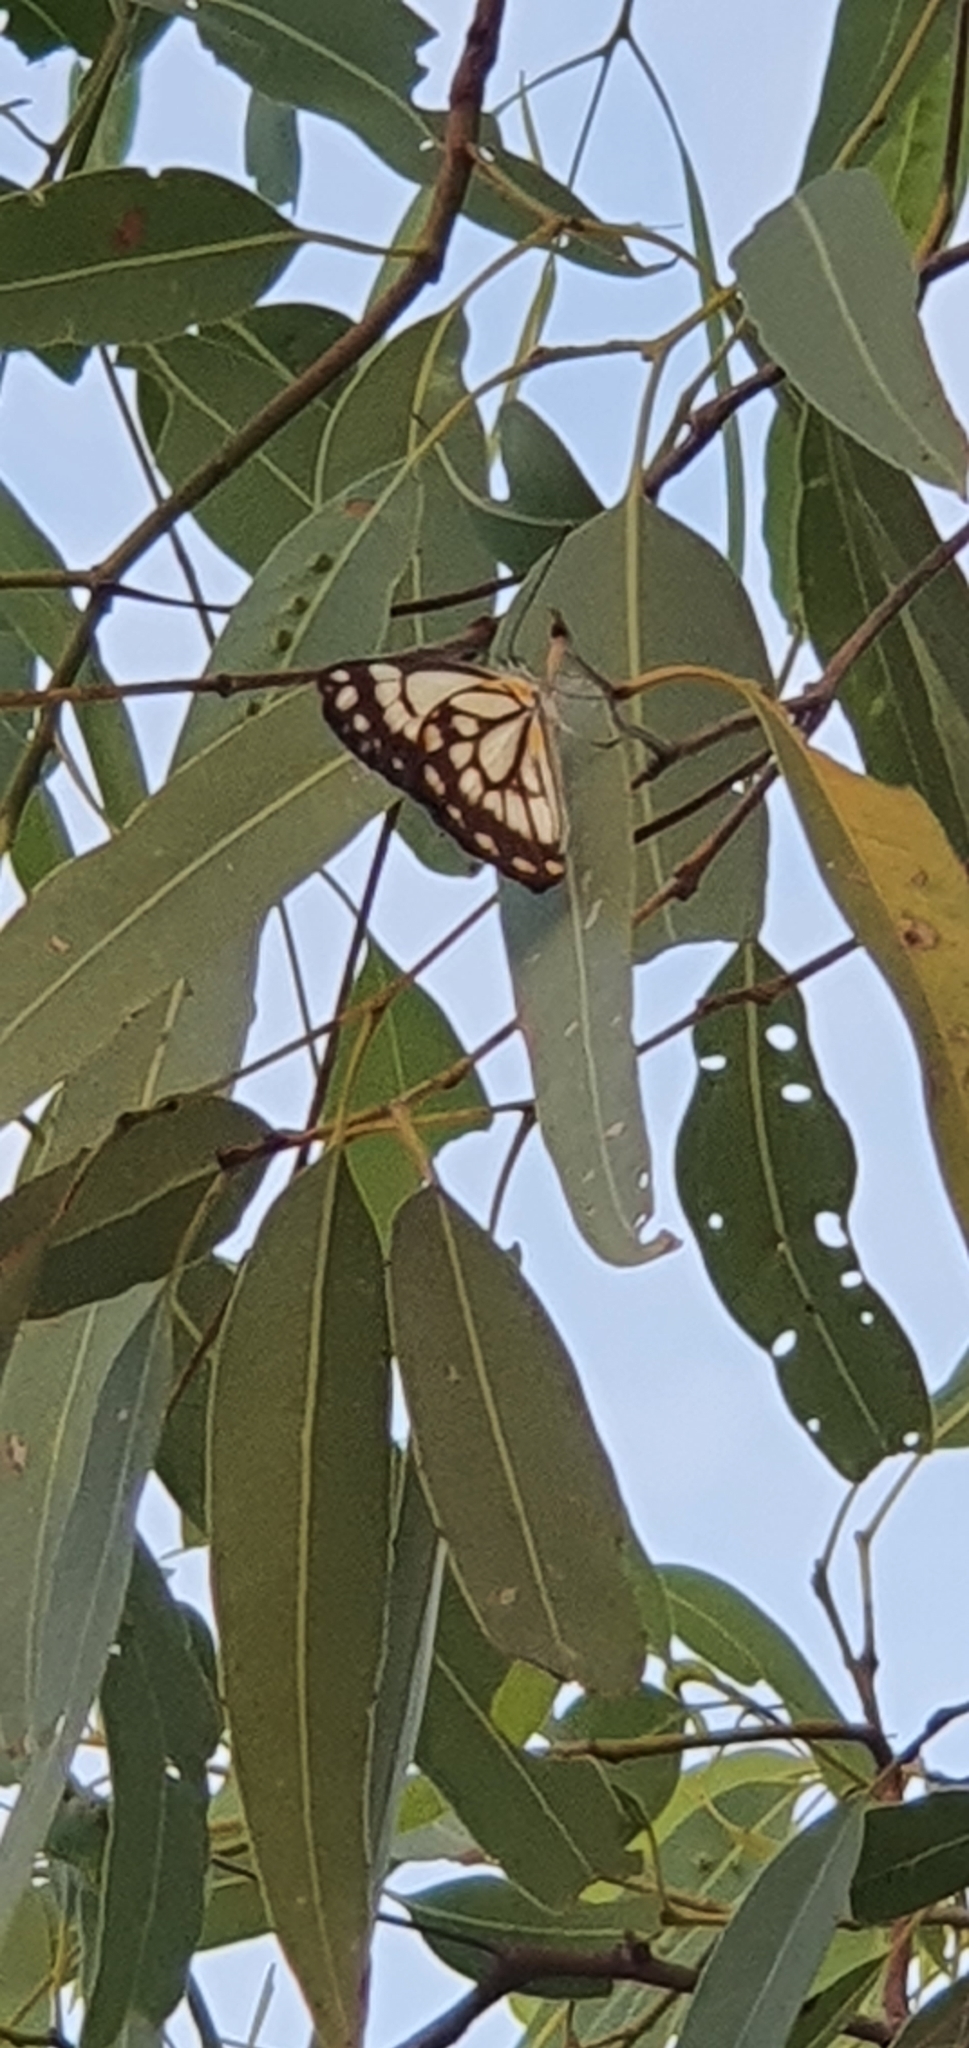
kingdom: Animalia
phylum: Arthropoda
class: Insecta
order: Lepidoptera
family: Pieridae
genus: Belenois
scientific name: Belenois java
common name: Caper white
